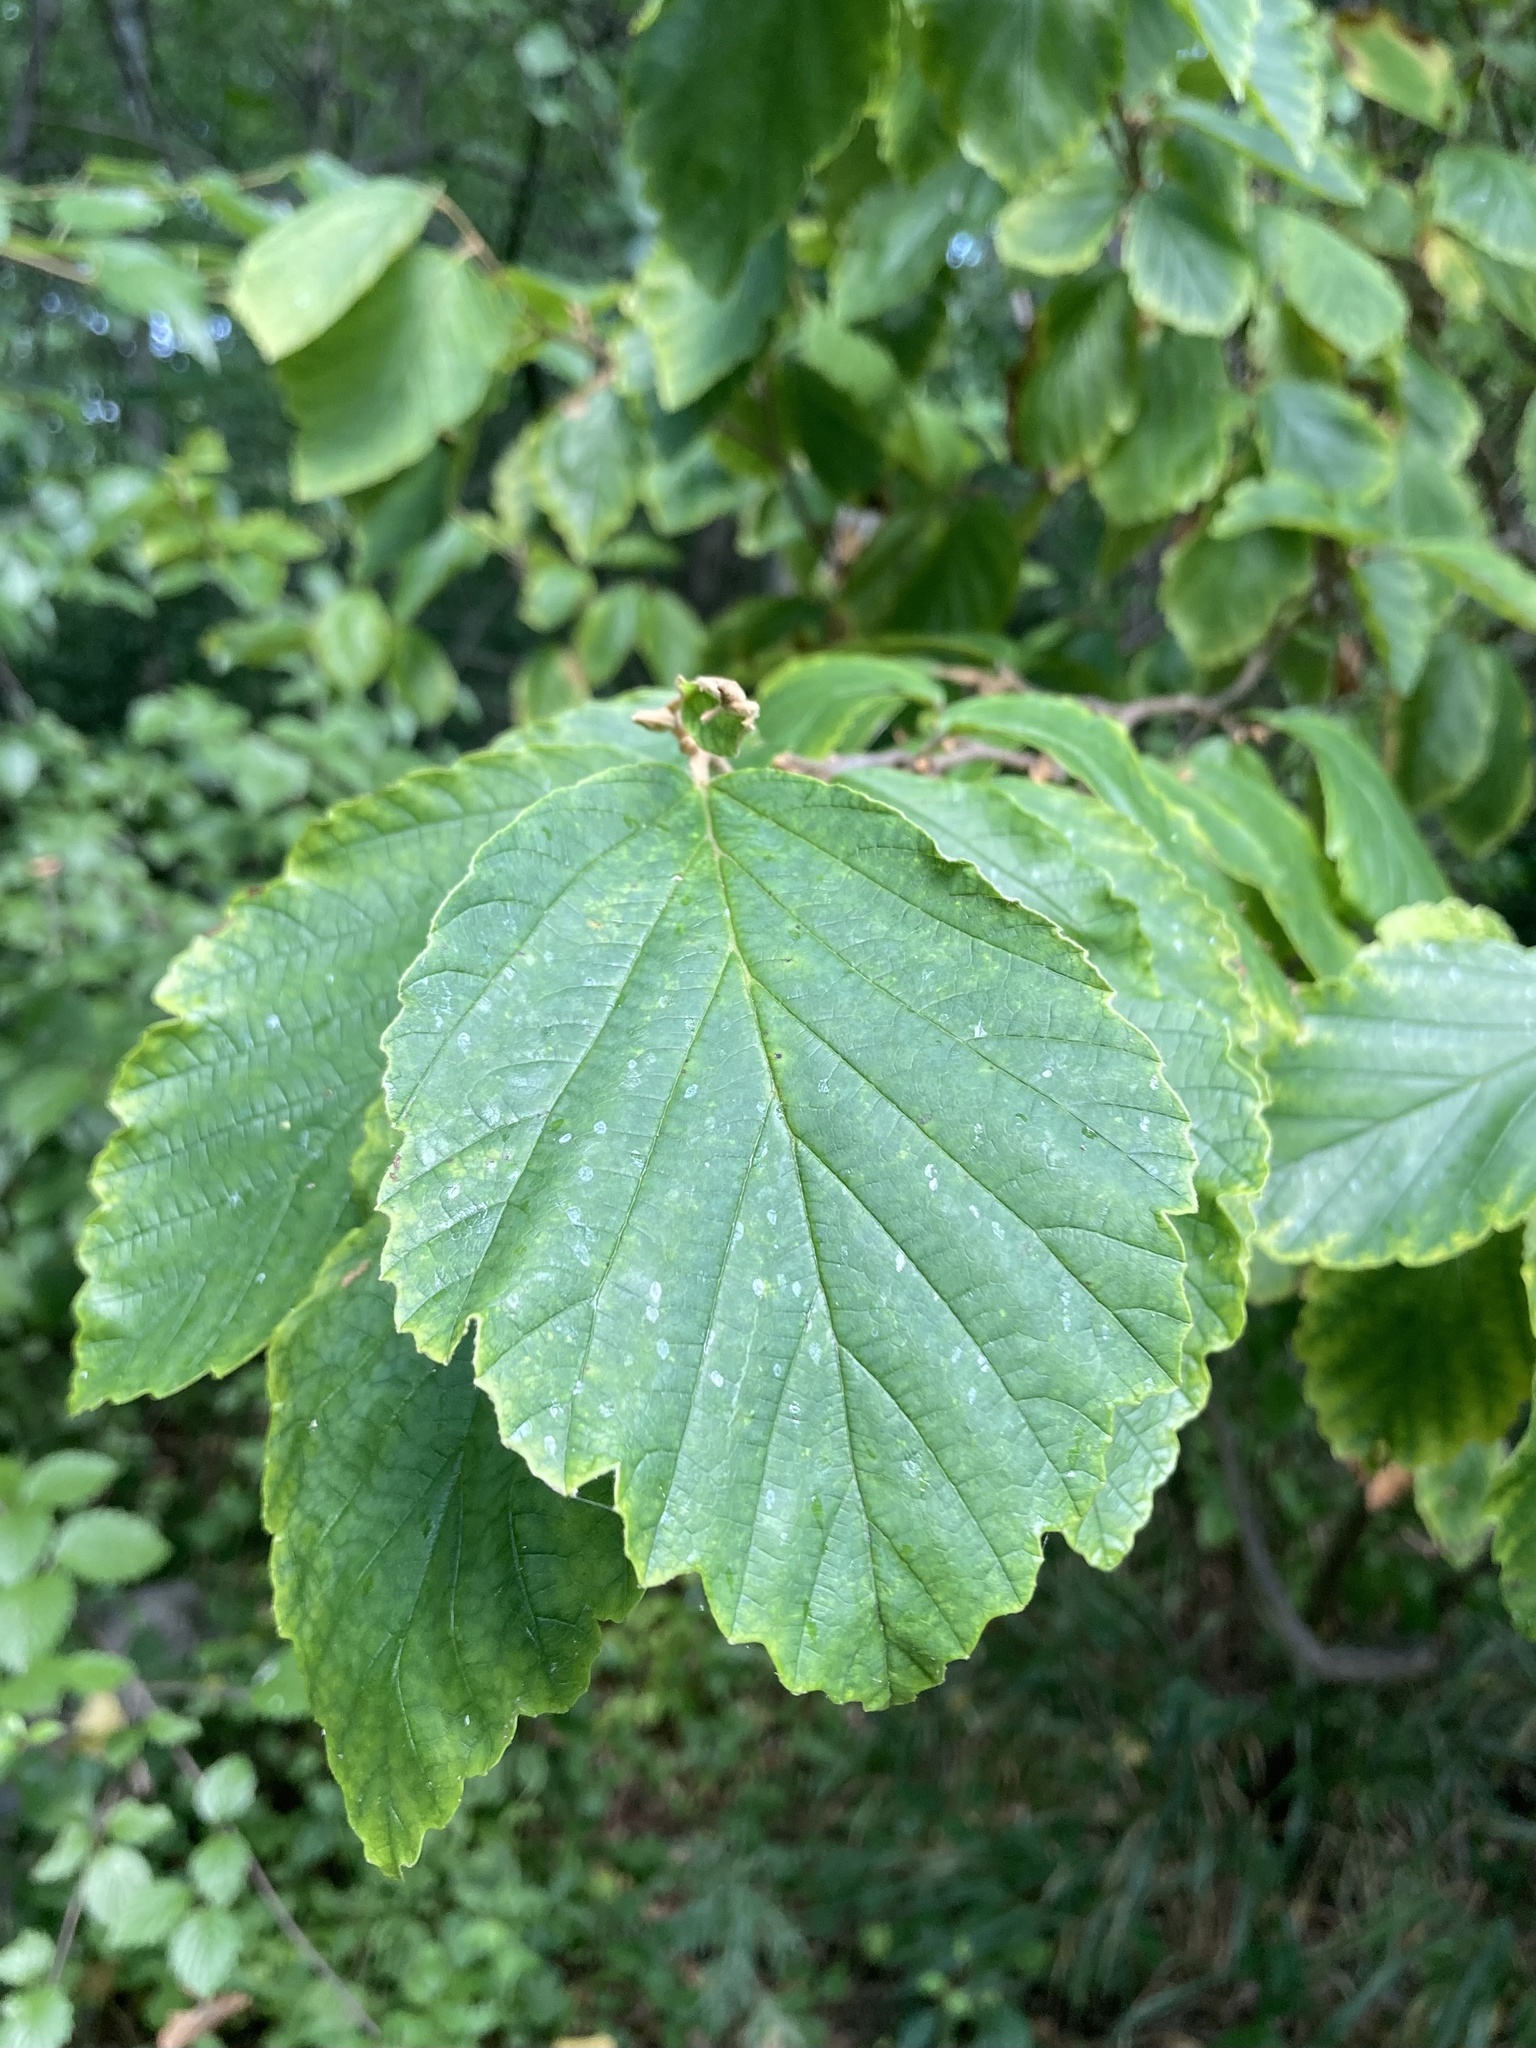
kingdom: Plantae
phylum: Tracheophyta
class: Magnoliopsida
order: Saxifragales
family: Hamamelidaceae
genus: Hamamelis
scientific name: Hamamelis virginiana
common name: Witch-hazel
